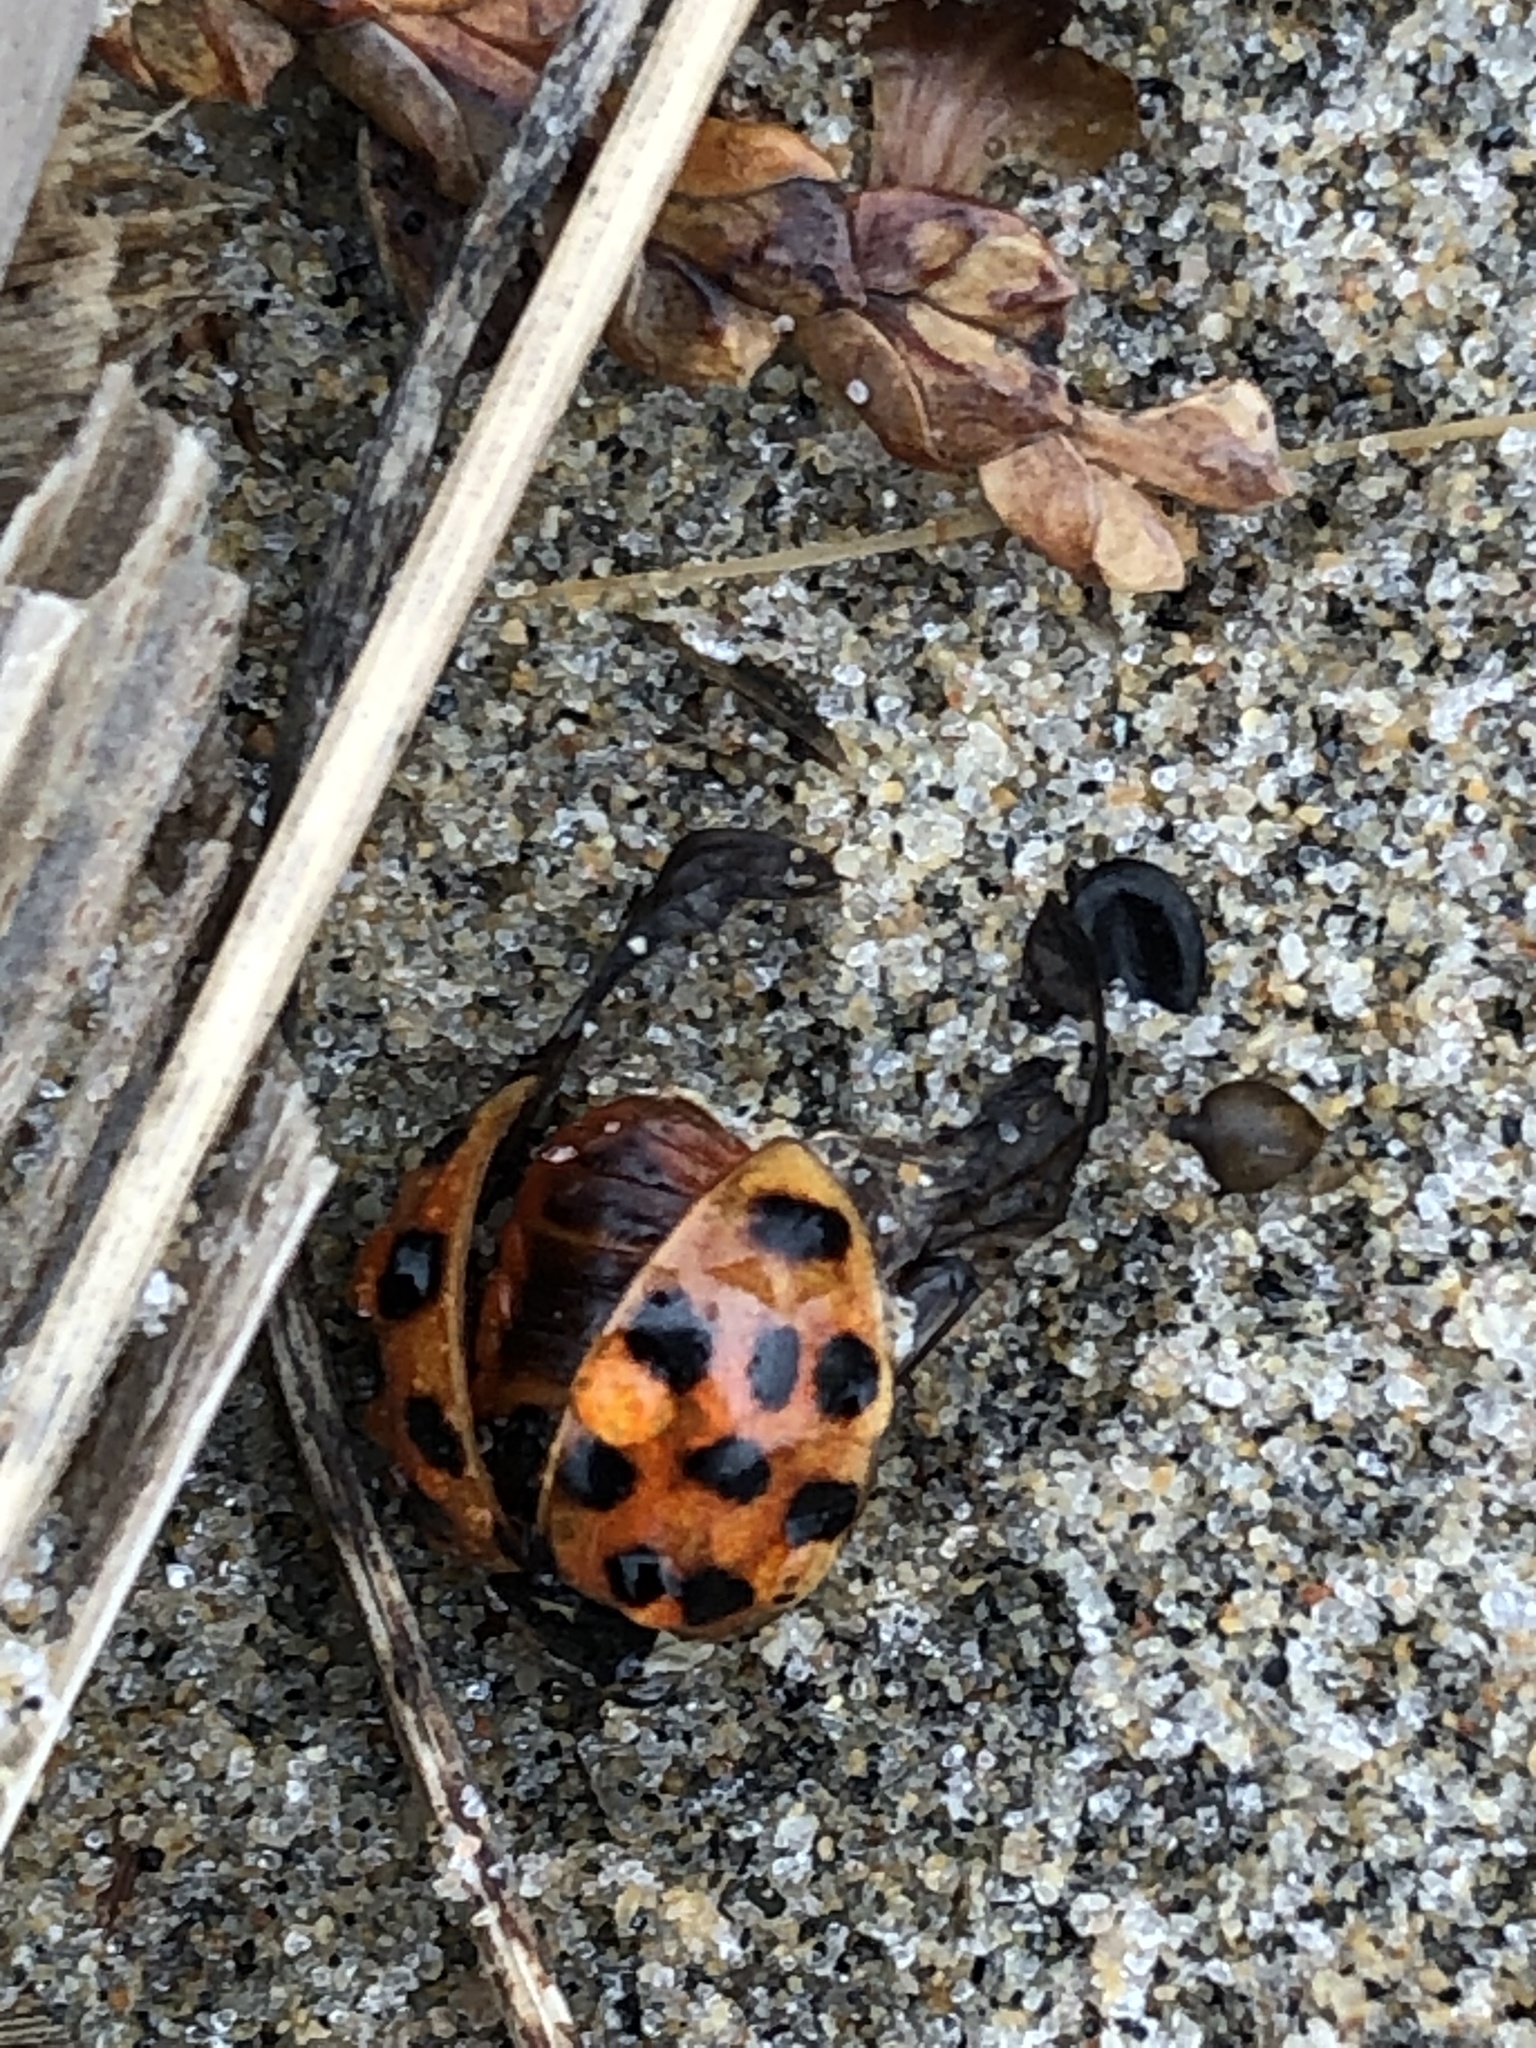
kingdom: Animalia
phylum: Arthropoda
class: Insecta
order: Coleoptera
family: Coccinellidae
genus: Harmonia
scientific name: Harmonia axyridis
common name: Harlequin ladybird
